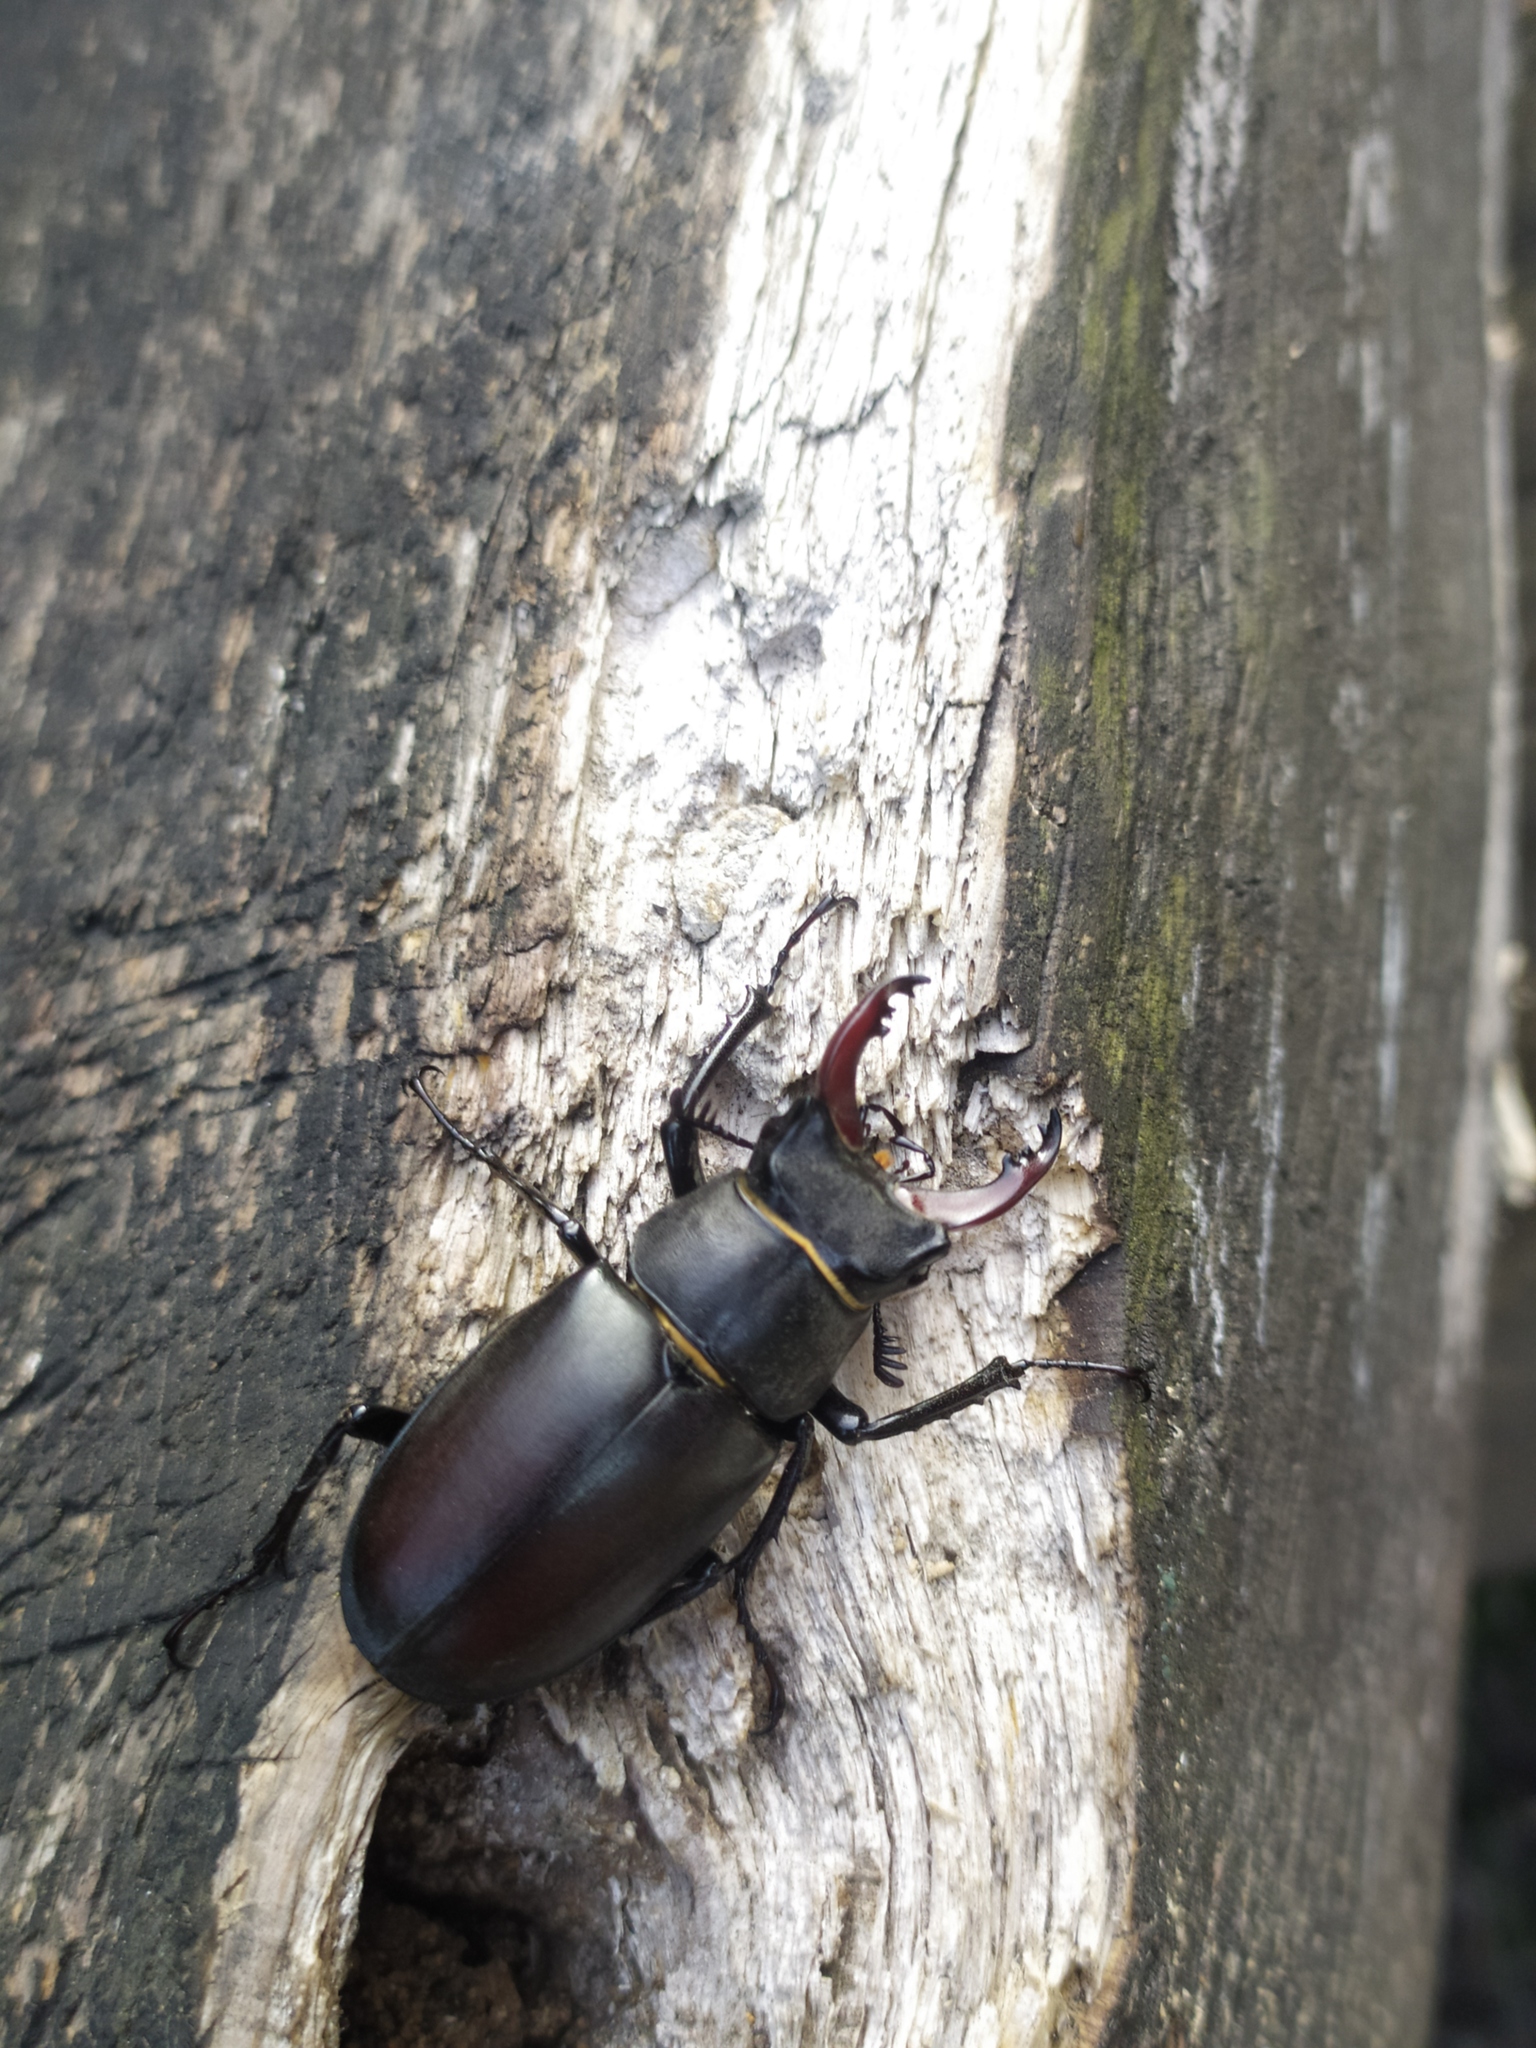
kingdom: Animalia
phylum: Arthropoda
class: Insecta
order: Coleoptera
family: Lucanidae
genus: Lucanus
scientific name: Lucanus cervus
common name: Stag beetle
